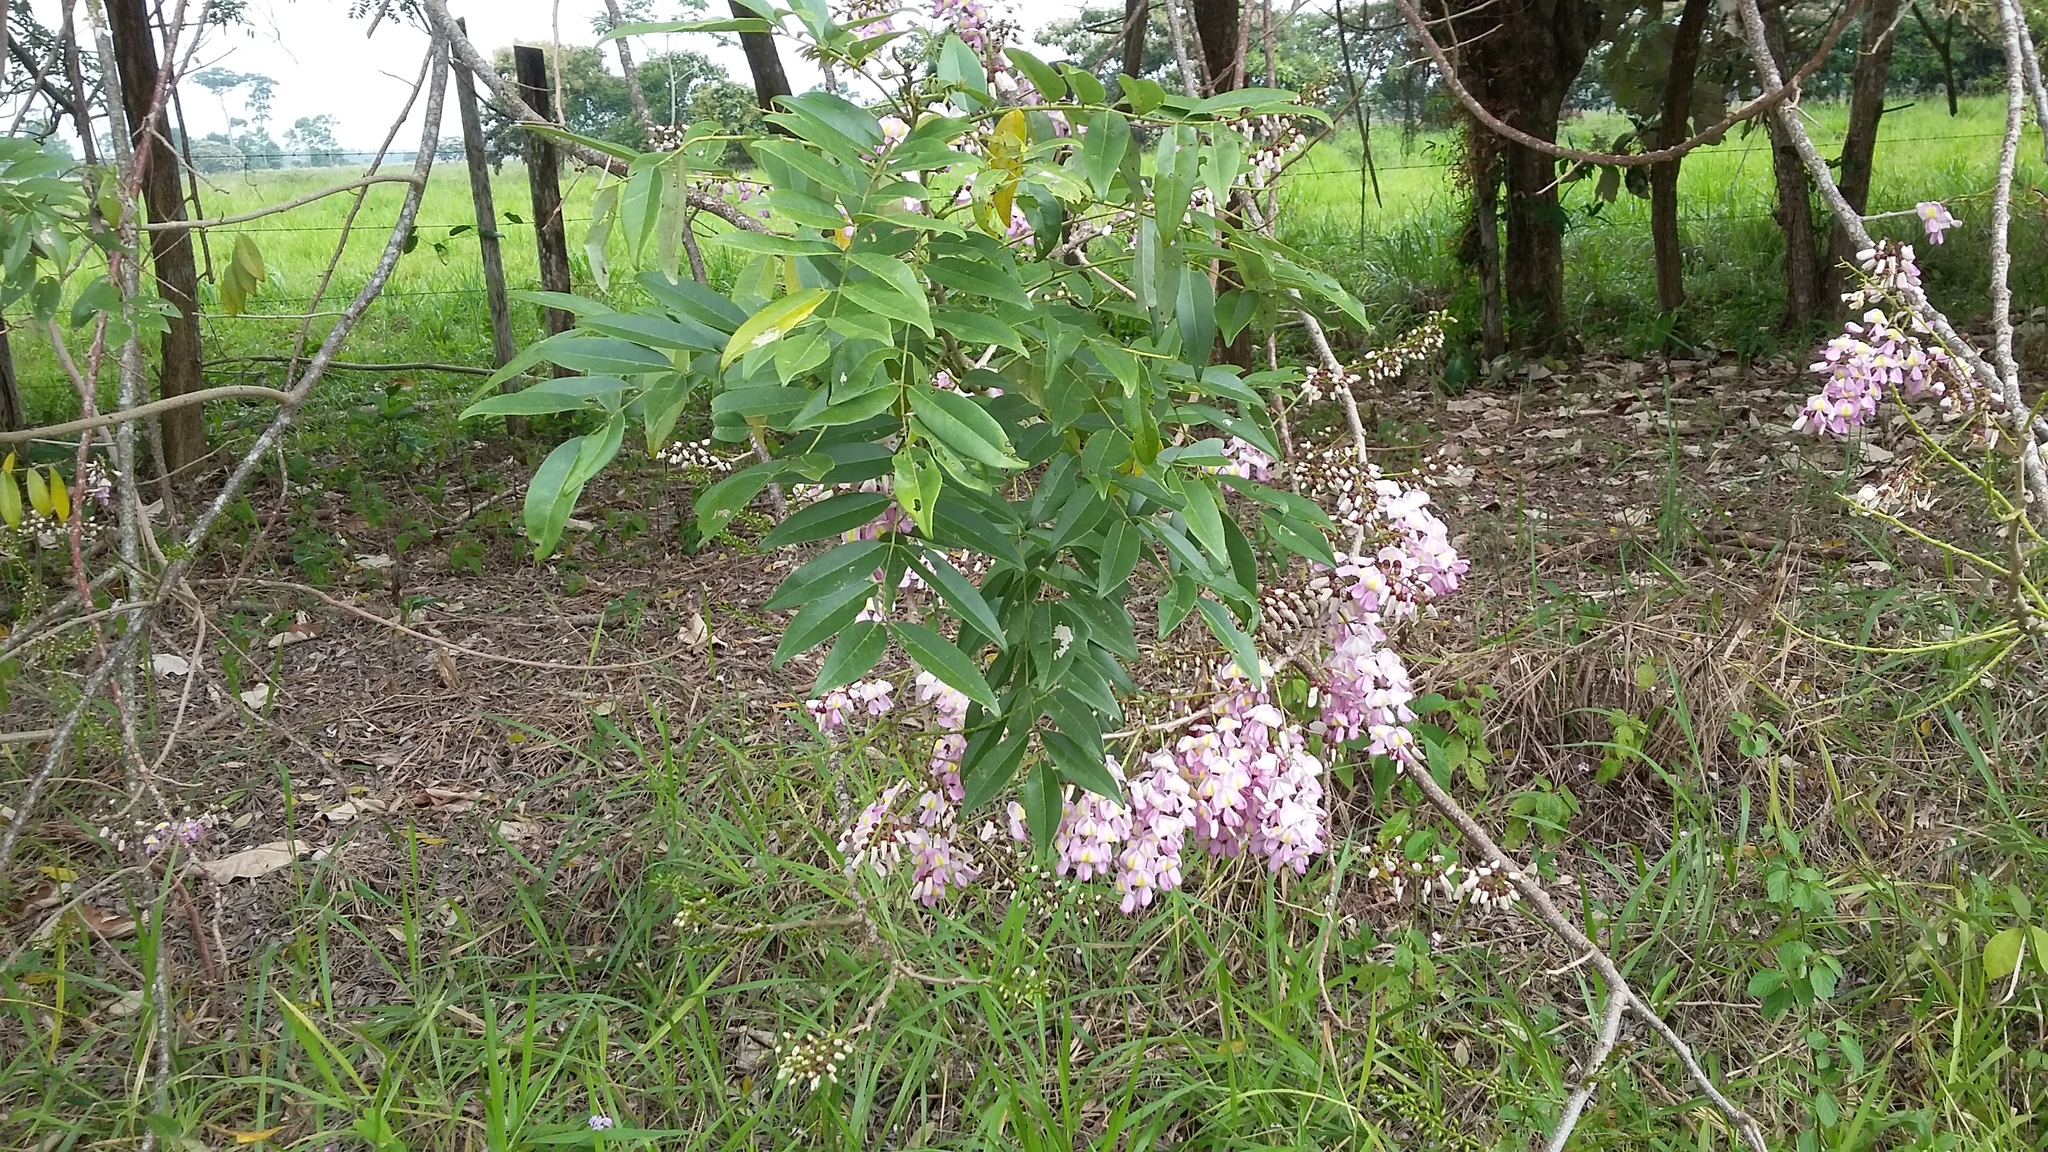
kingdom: Plantae
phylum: Tracheophyta
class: Magnoliopsida
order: Fabales
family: Fabaceae
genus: Gliricidia
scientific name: Gliricidia sepium
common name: Quickstick
